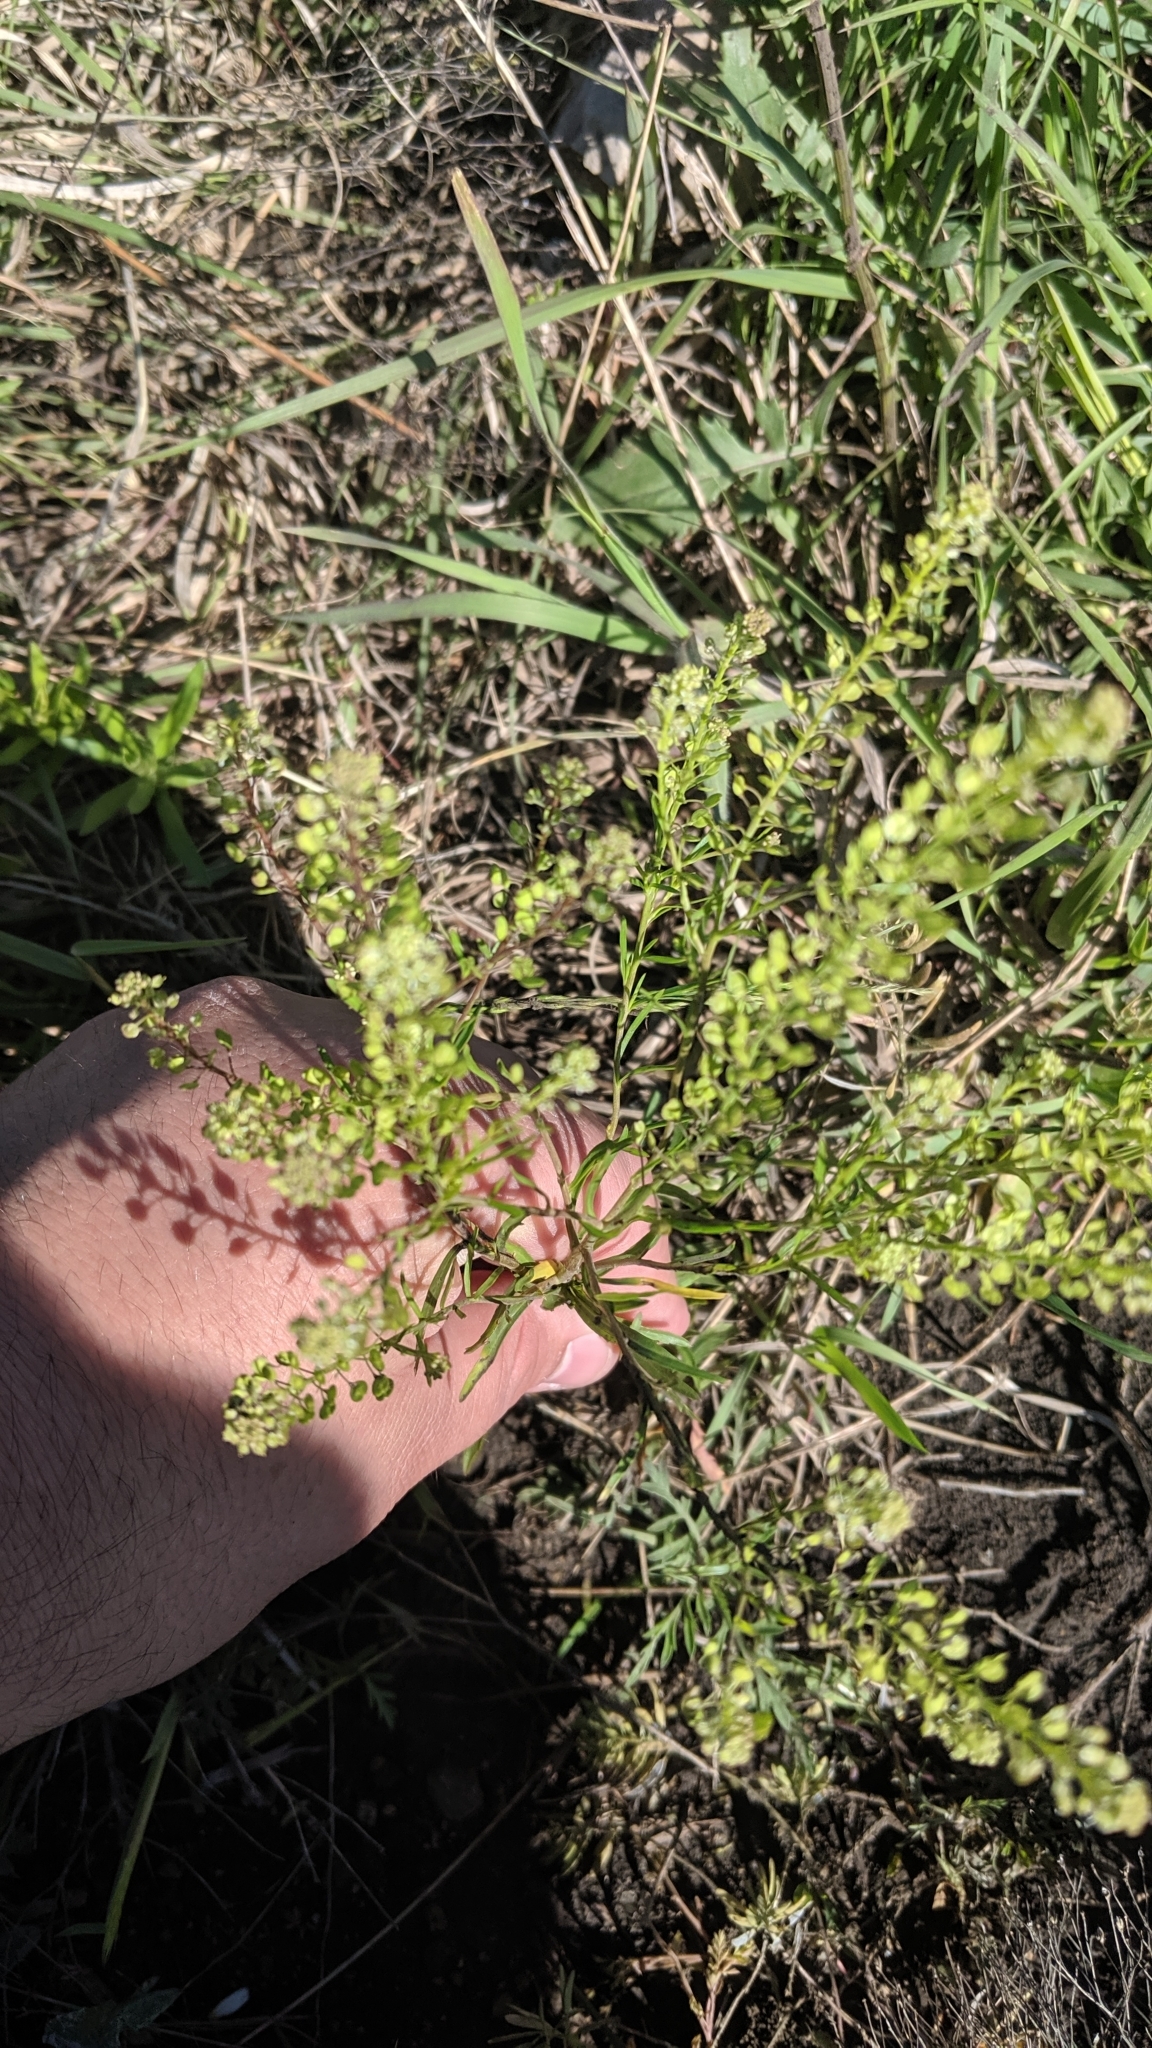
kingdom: Plantae
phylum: Tracheophyta
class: Magnoliopsida
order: Brassicales
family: Brassicaceae
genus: Lepidium
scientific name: Lepidium densiflorum
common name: Miner's pepperwort
